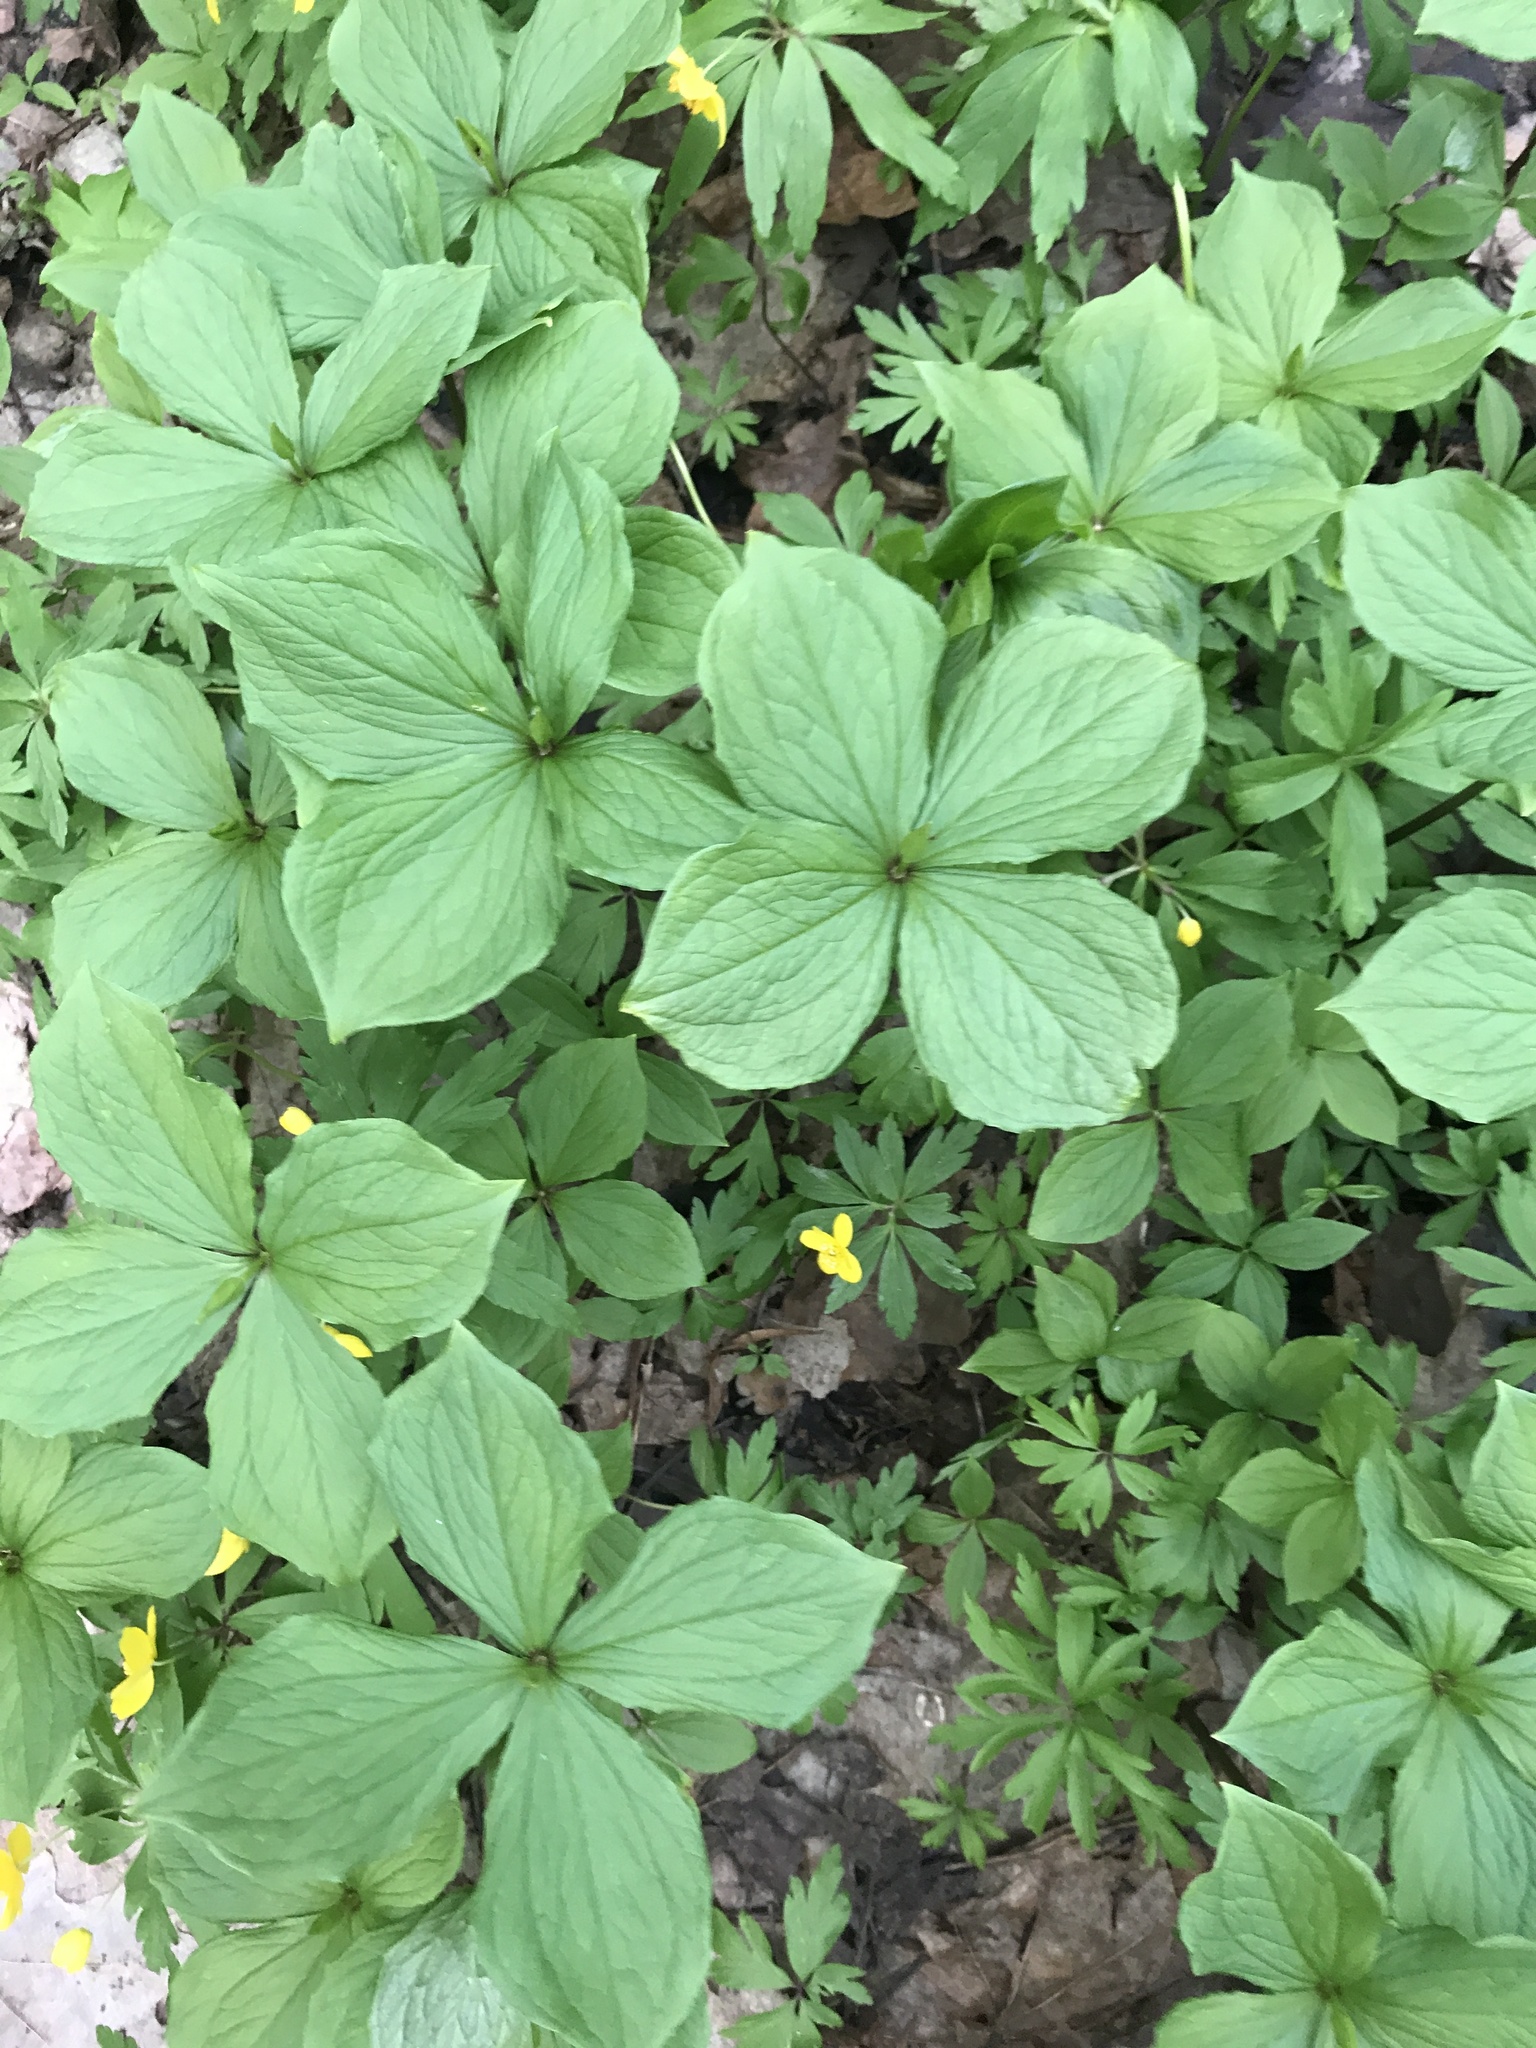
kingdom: Plantae
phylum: Tracheophyta
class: Liliopsida
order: Liliales
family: Melanthiaceae
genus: Paris
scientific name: Paris quadrifolia
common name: Herb-paris
